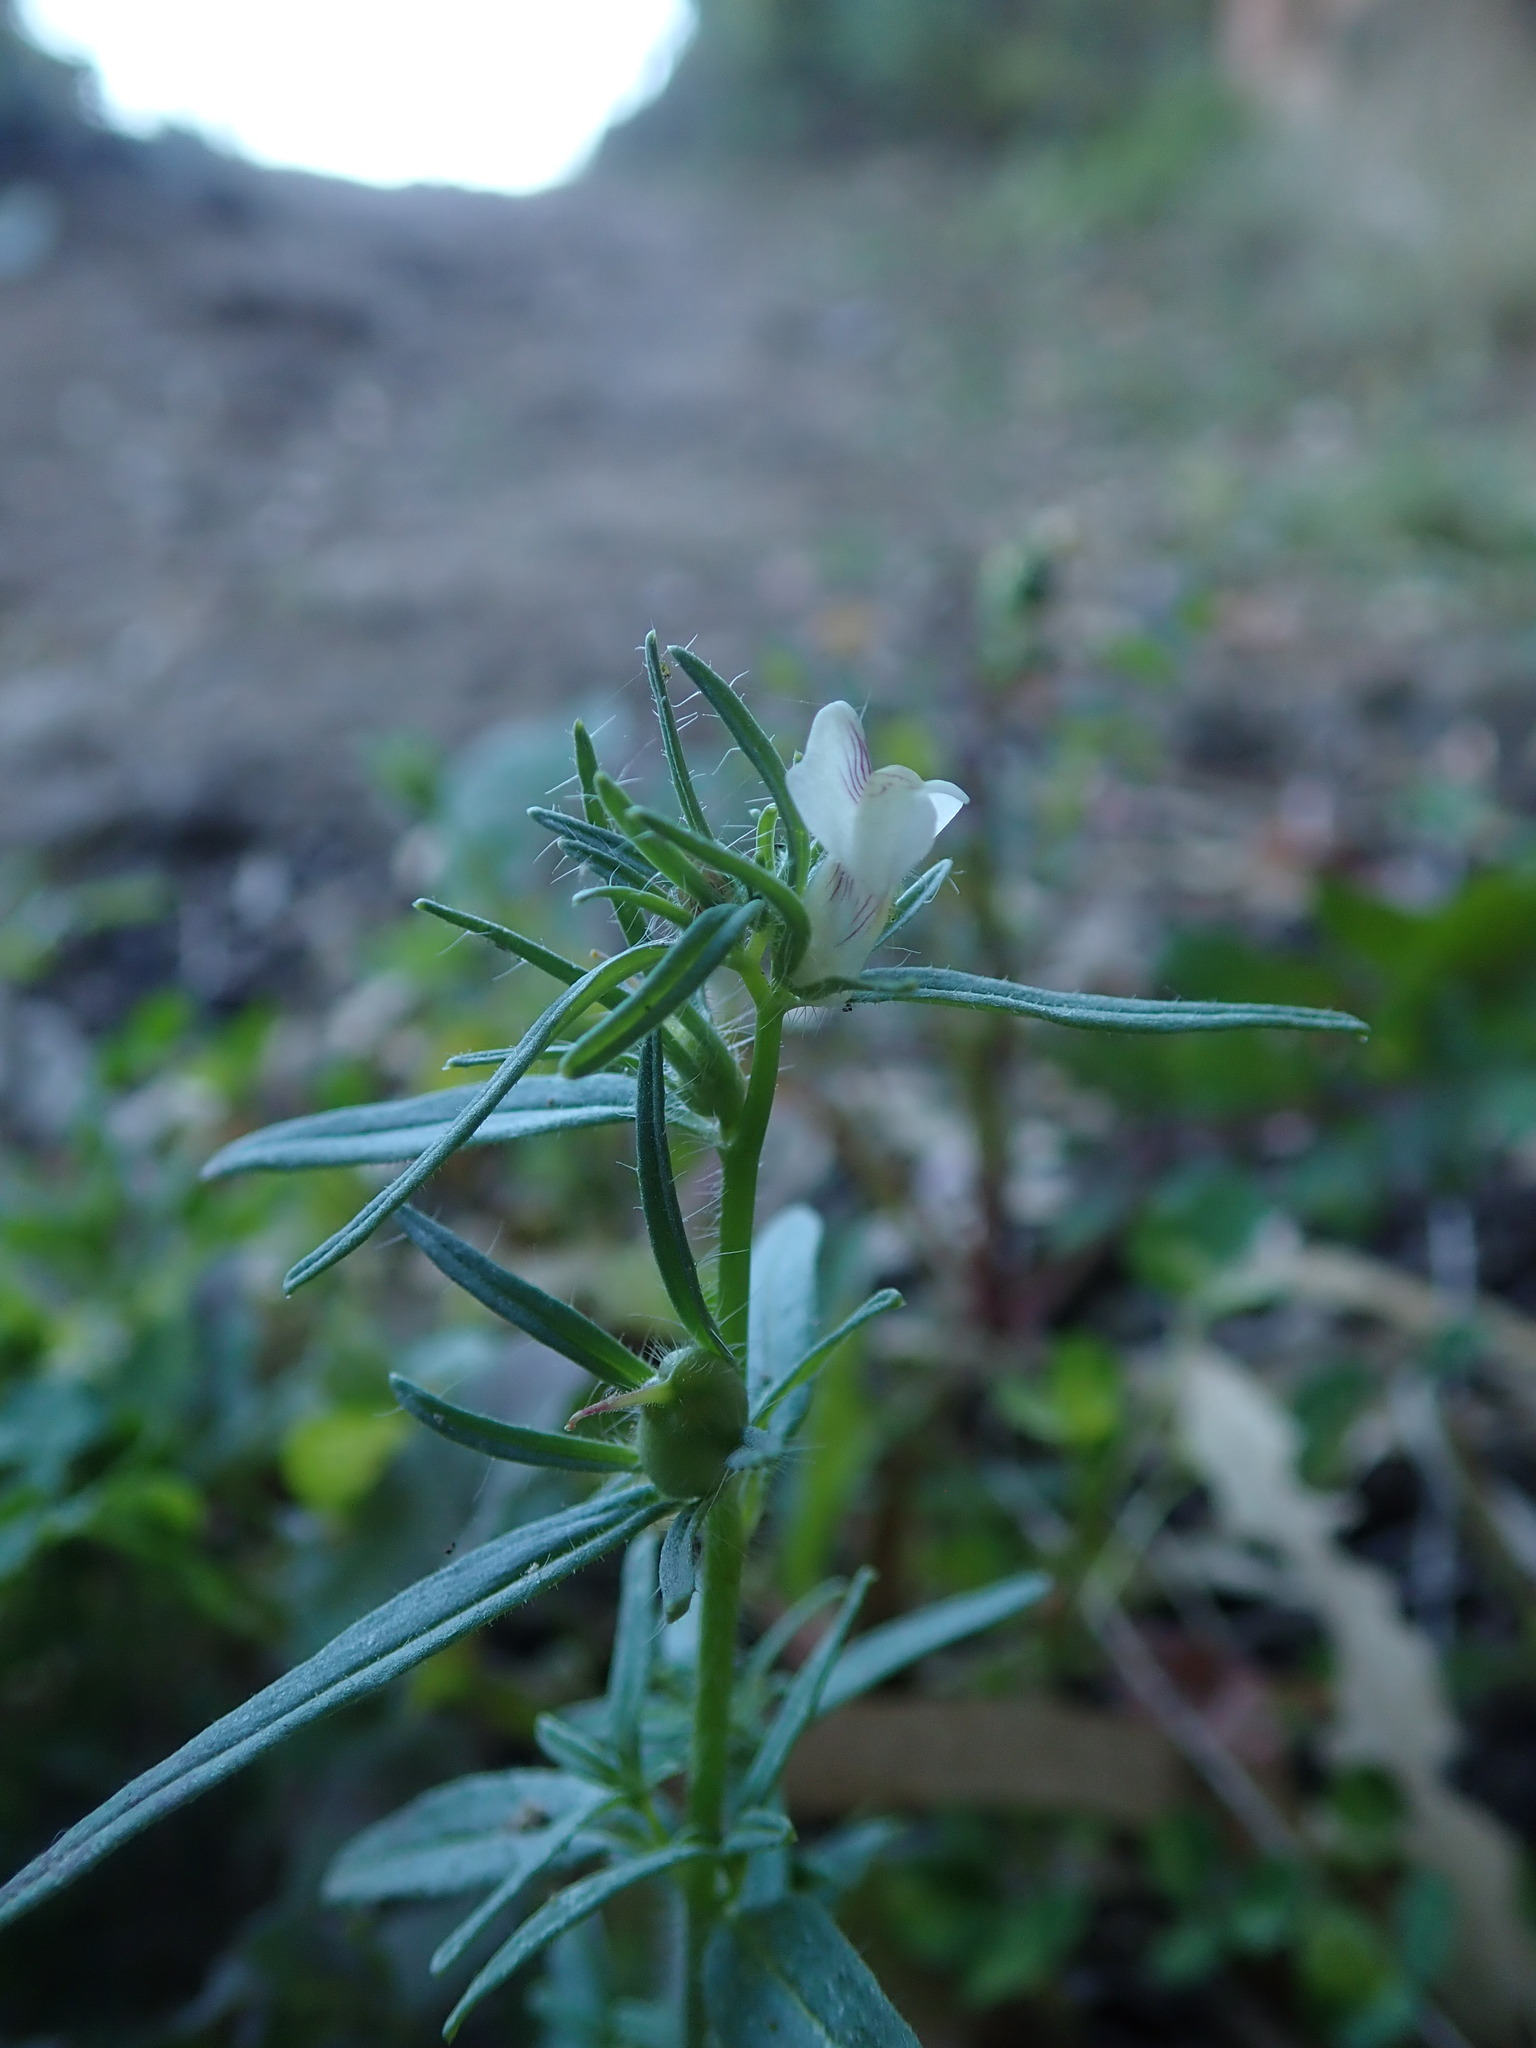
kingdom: Plantae
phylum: Tracheophyta
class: Magnoliopsida
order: Lamiales
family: Plantaginaceae
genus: Misopates
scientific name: Misopates orontium
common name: Weasel's-snout
